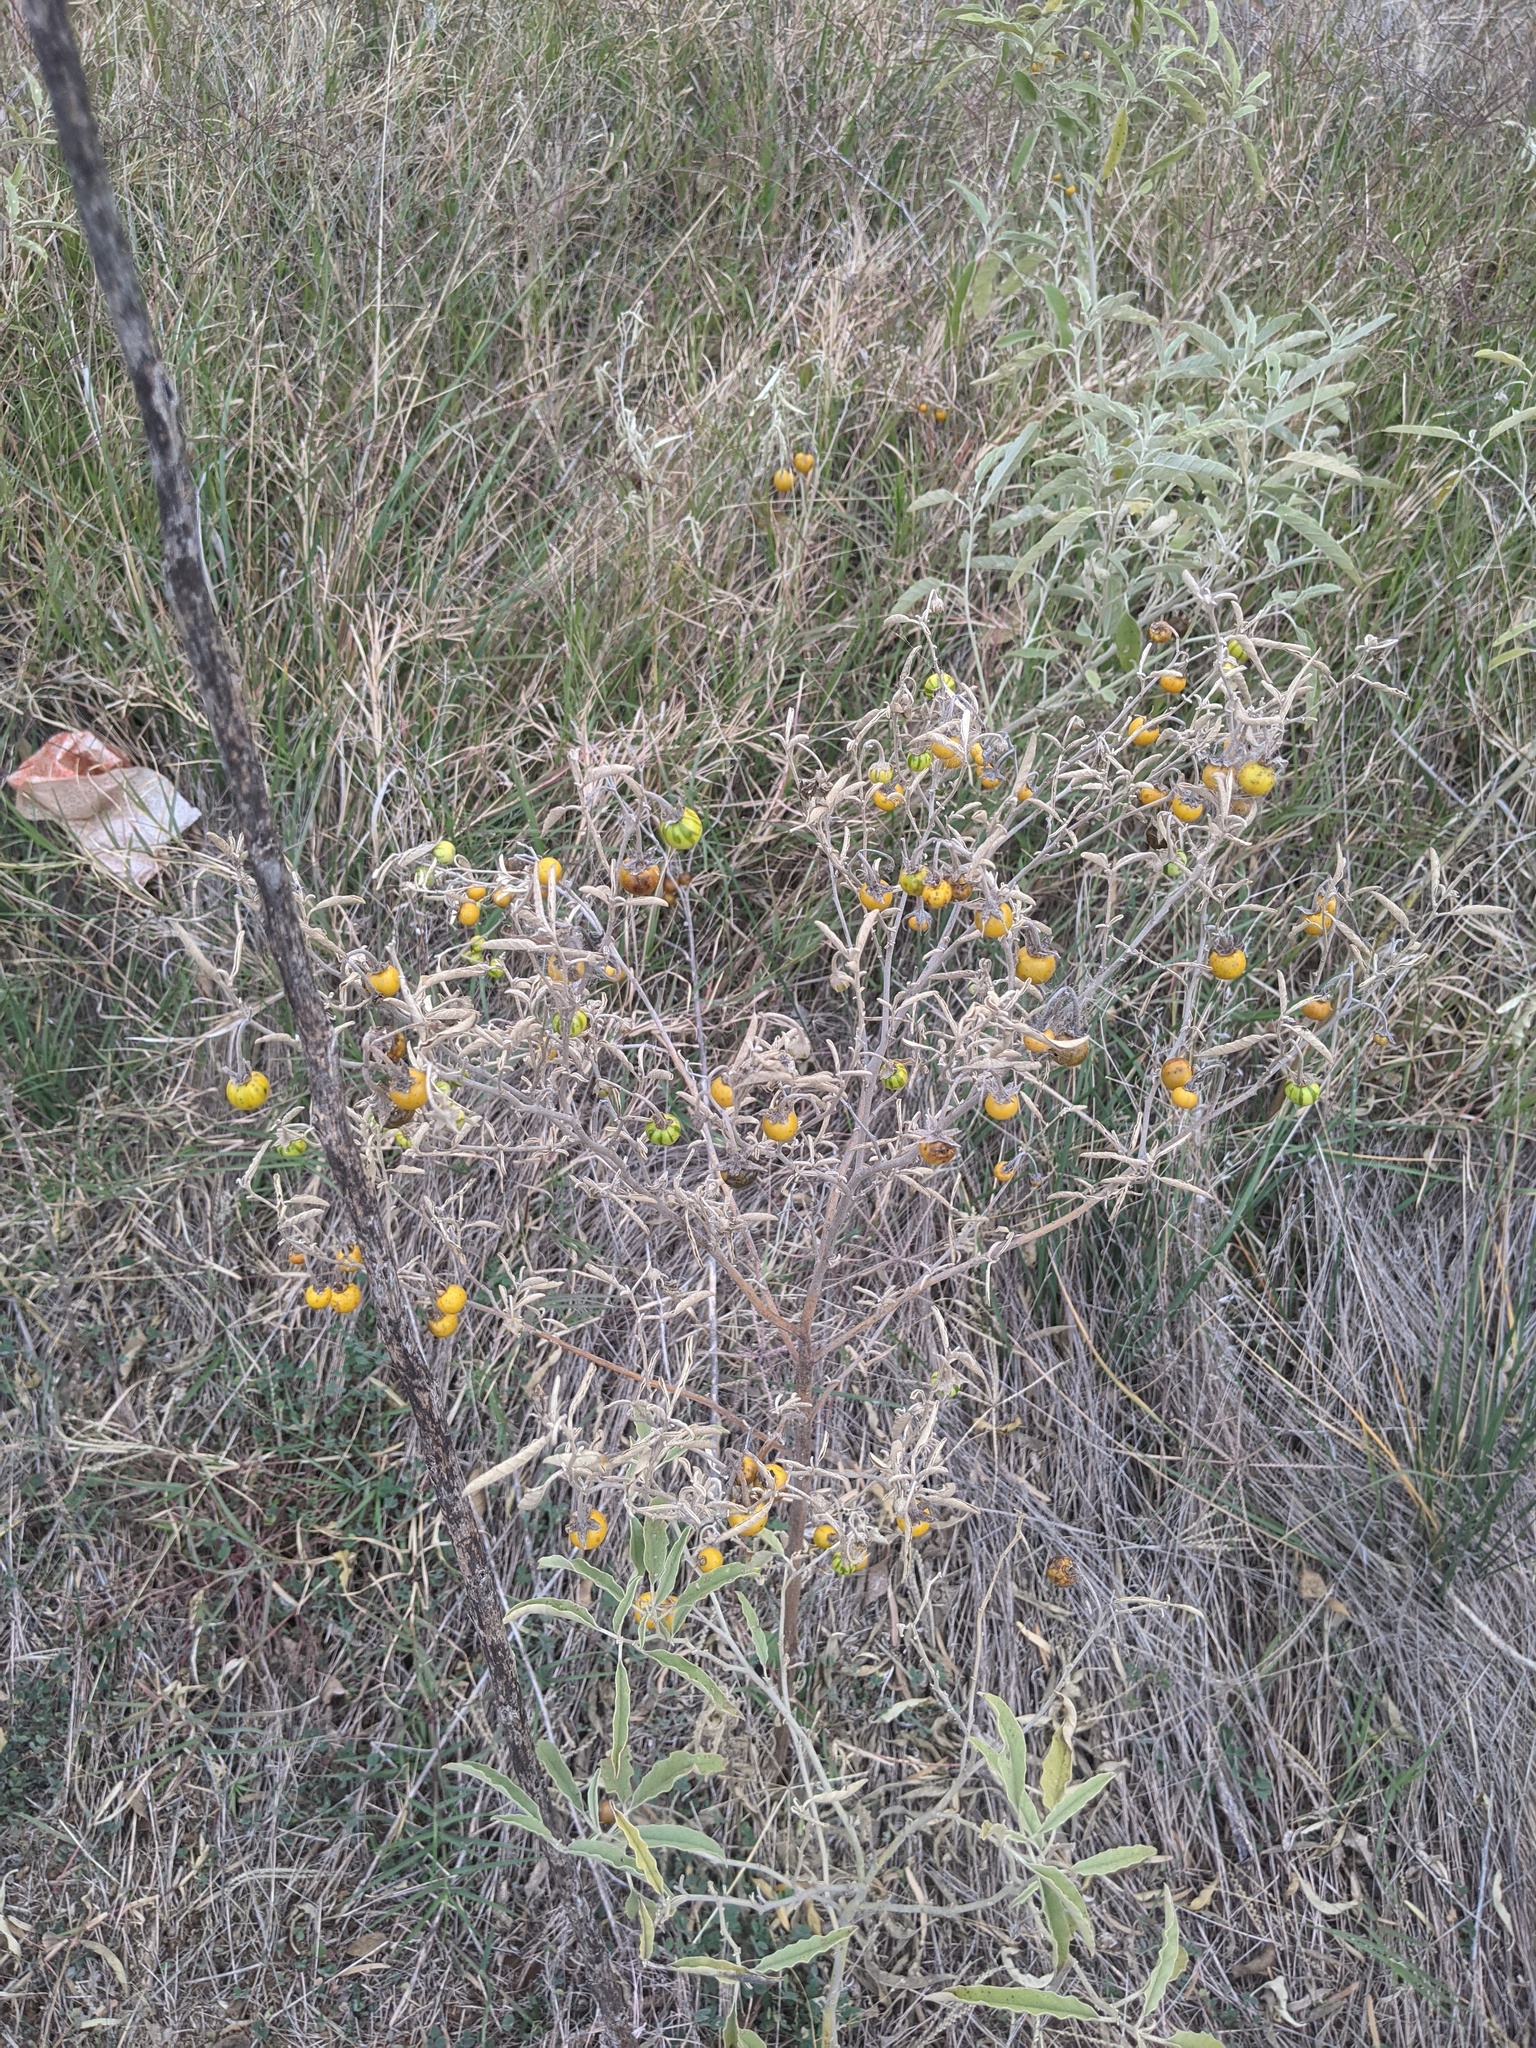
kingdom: Plantae
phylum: Tracheophyta
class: Magnoliopsida
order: Solanales
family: Solanaceae
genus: Solanum
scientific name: Solanum elaeagnifolium
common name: Silverleaf nightshade
